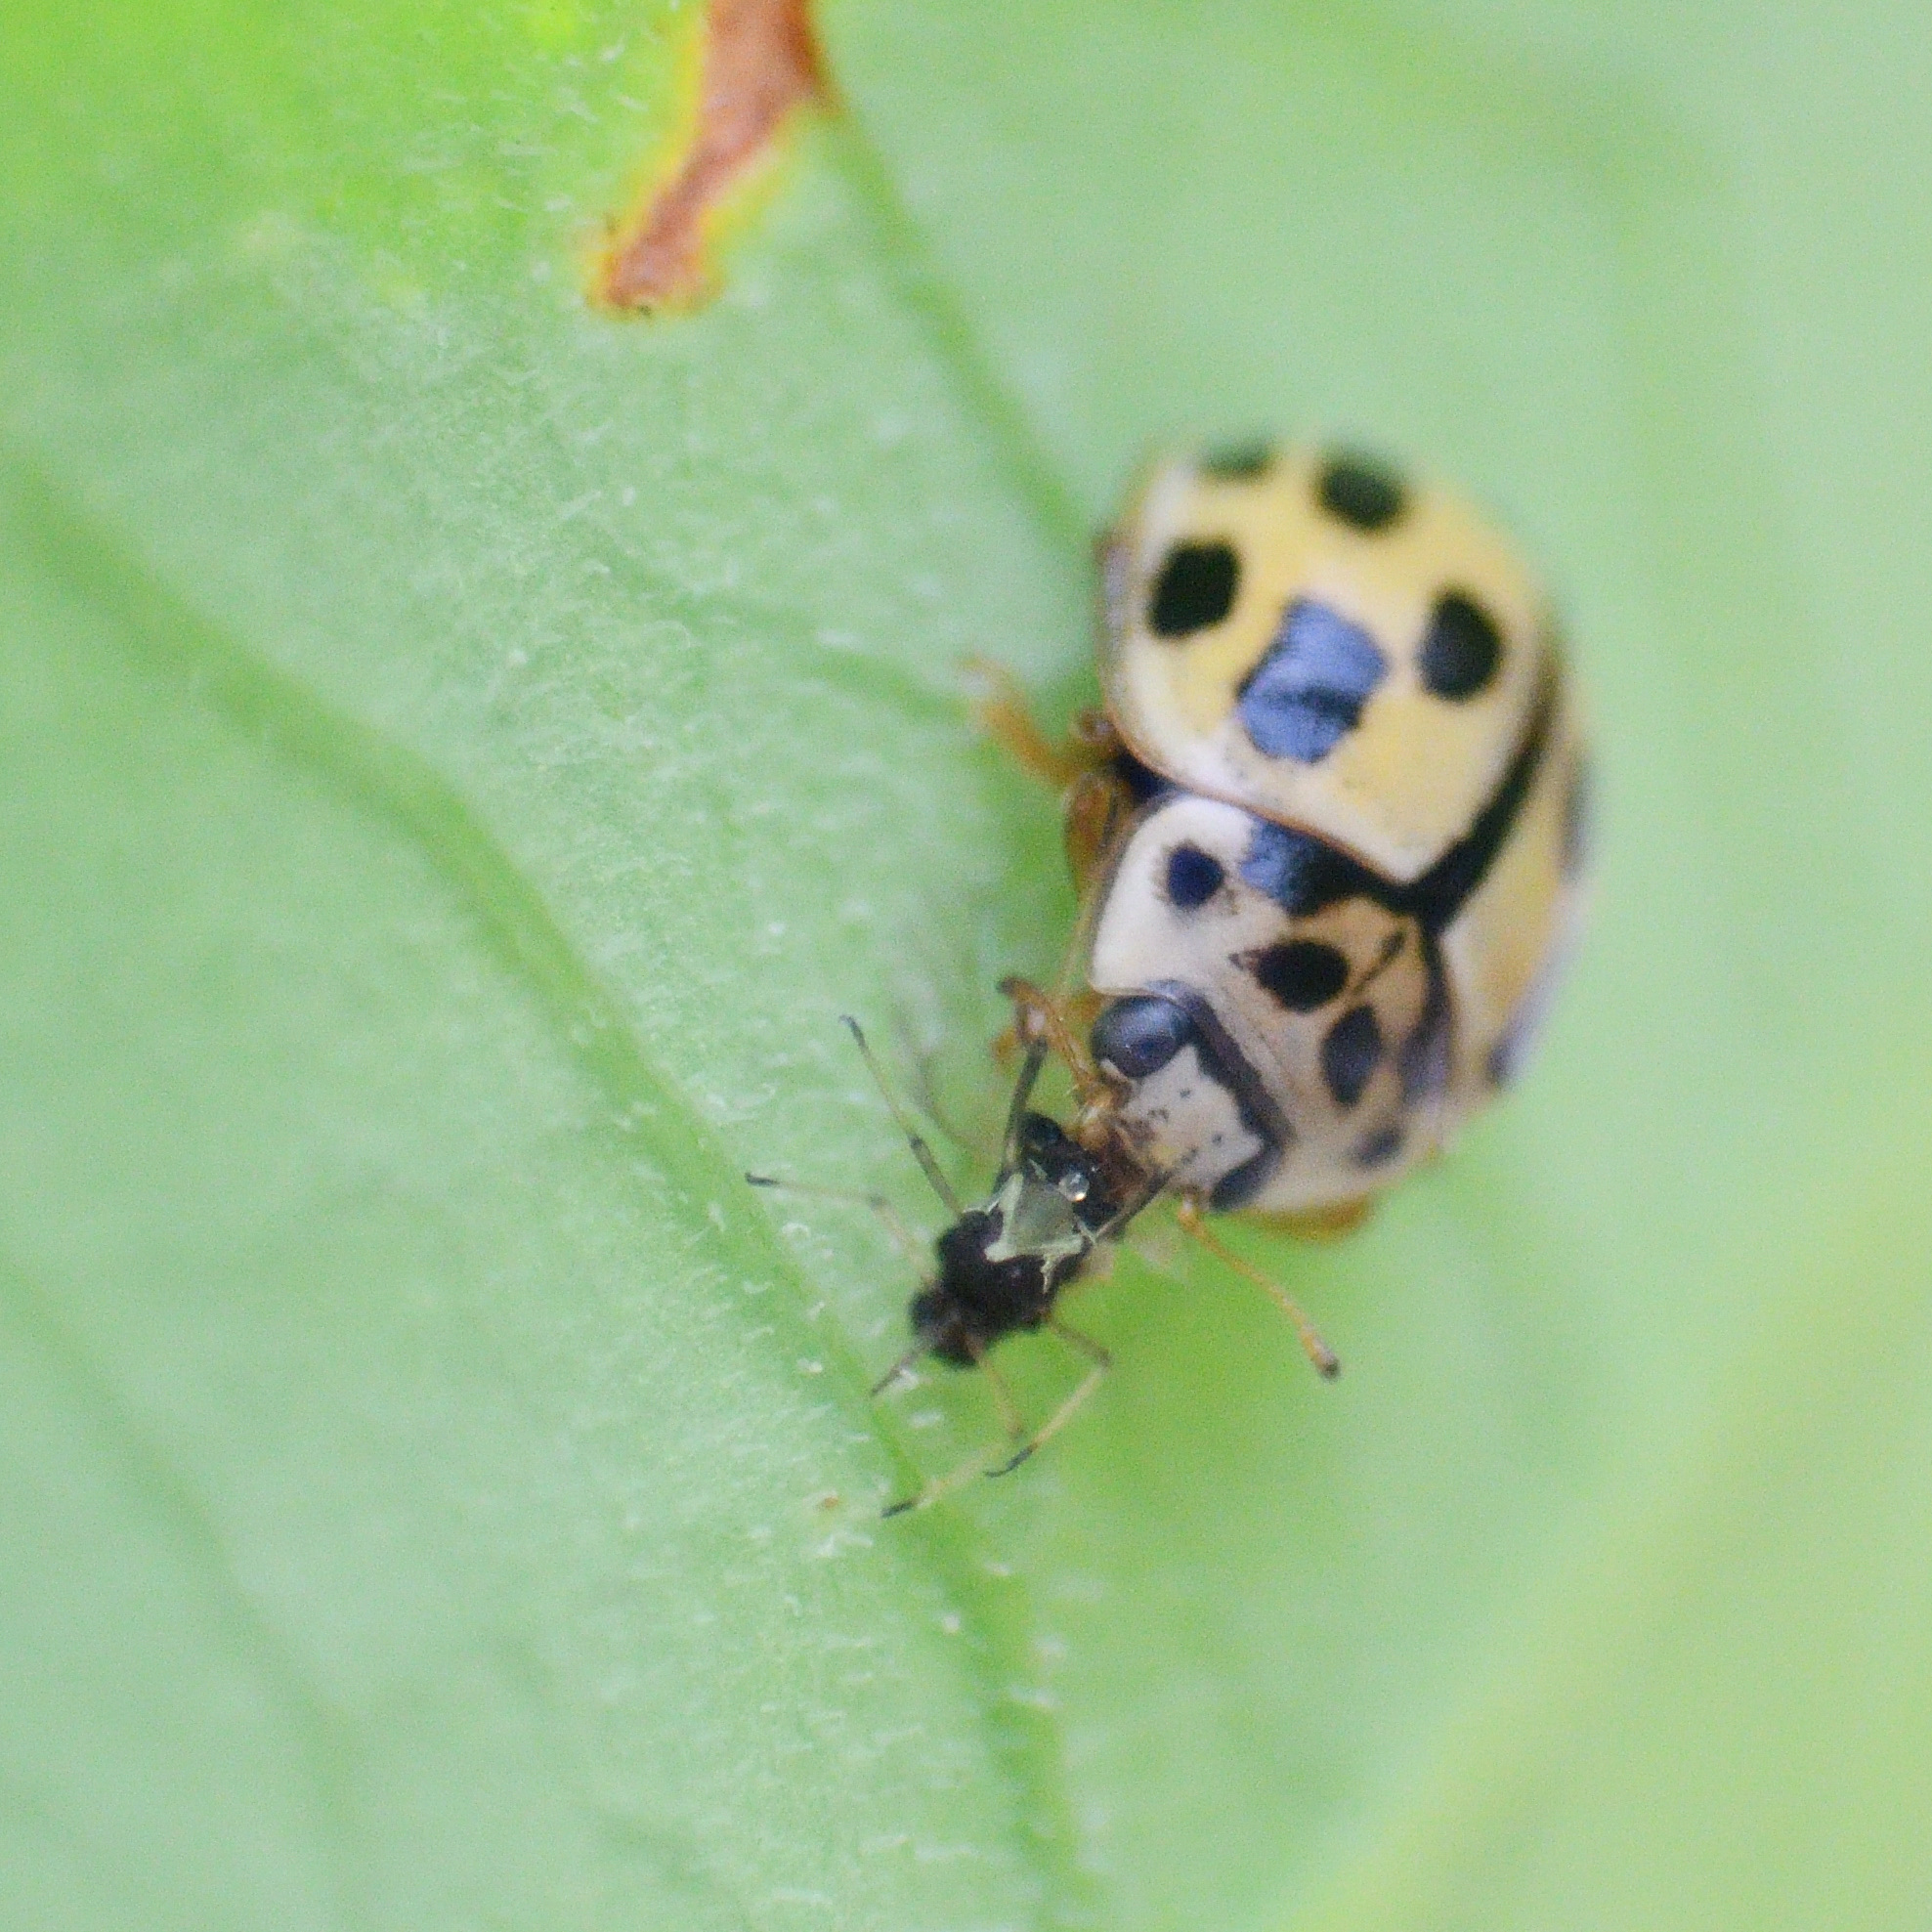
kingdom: Animalia
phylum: Arthropoda
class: Insecta
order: Coleoptera
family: Coccinellidae
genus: Propylaea
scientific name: Propylaea quatuordecimpunctata
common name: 14-spotted ladybird beetle
